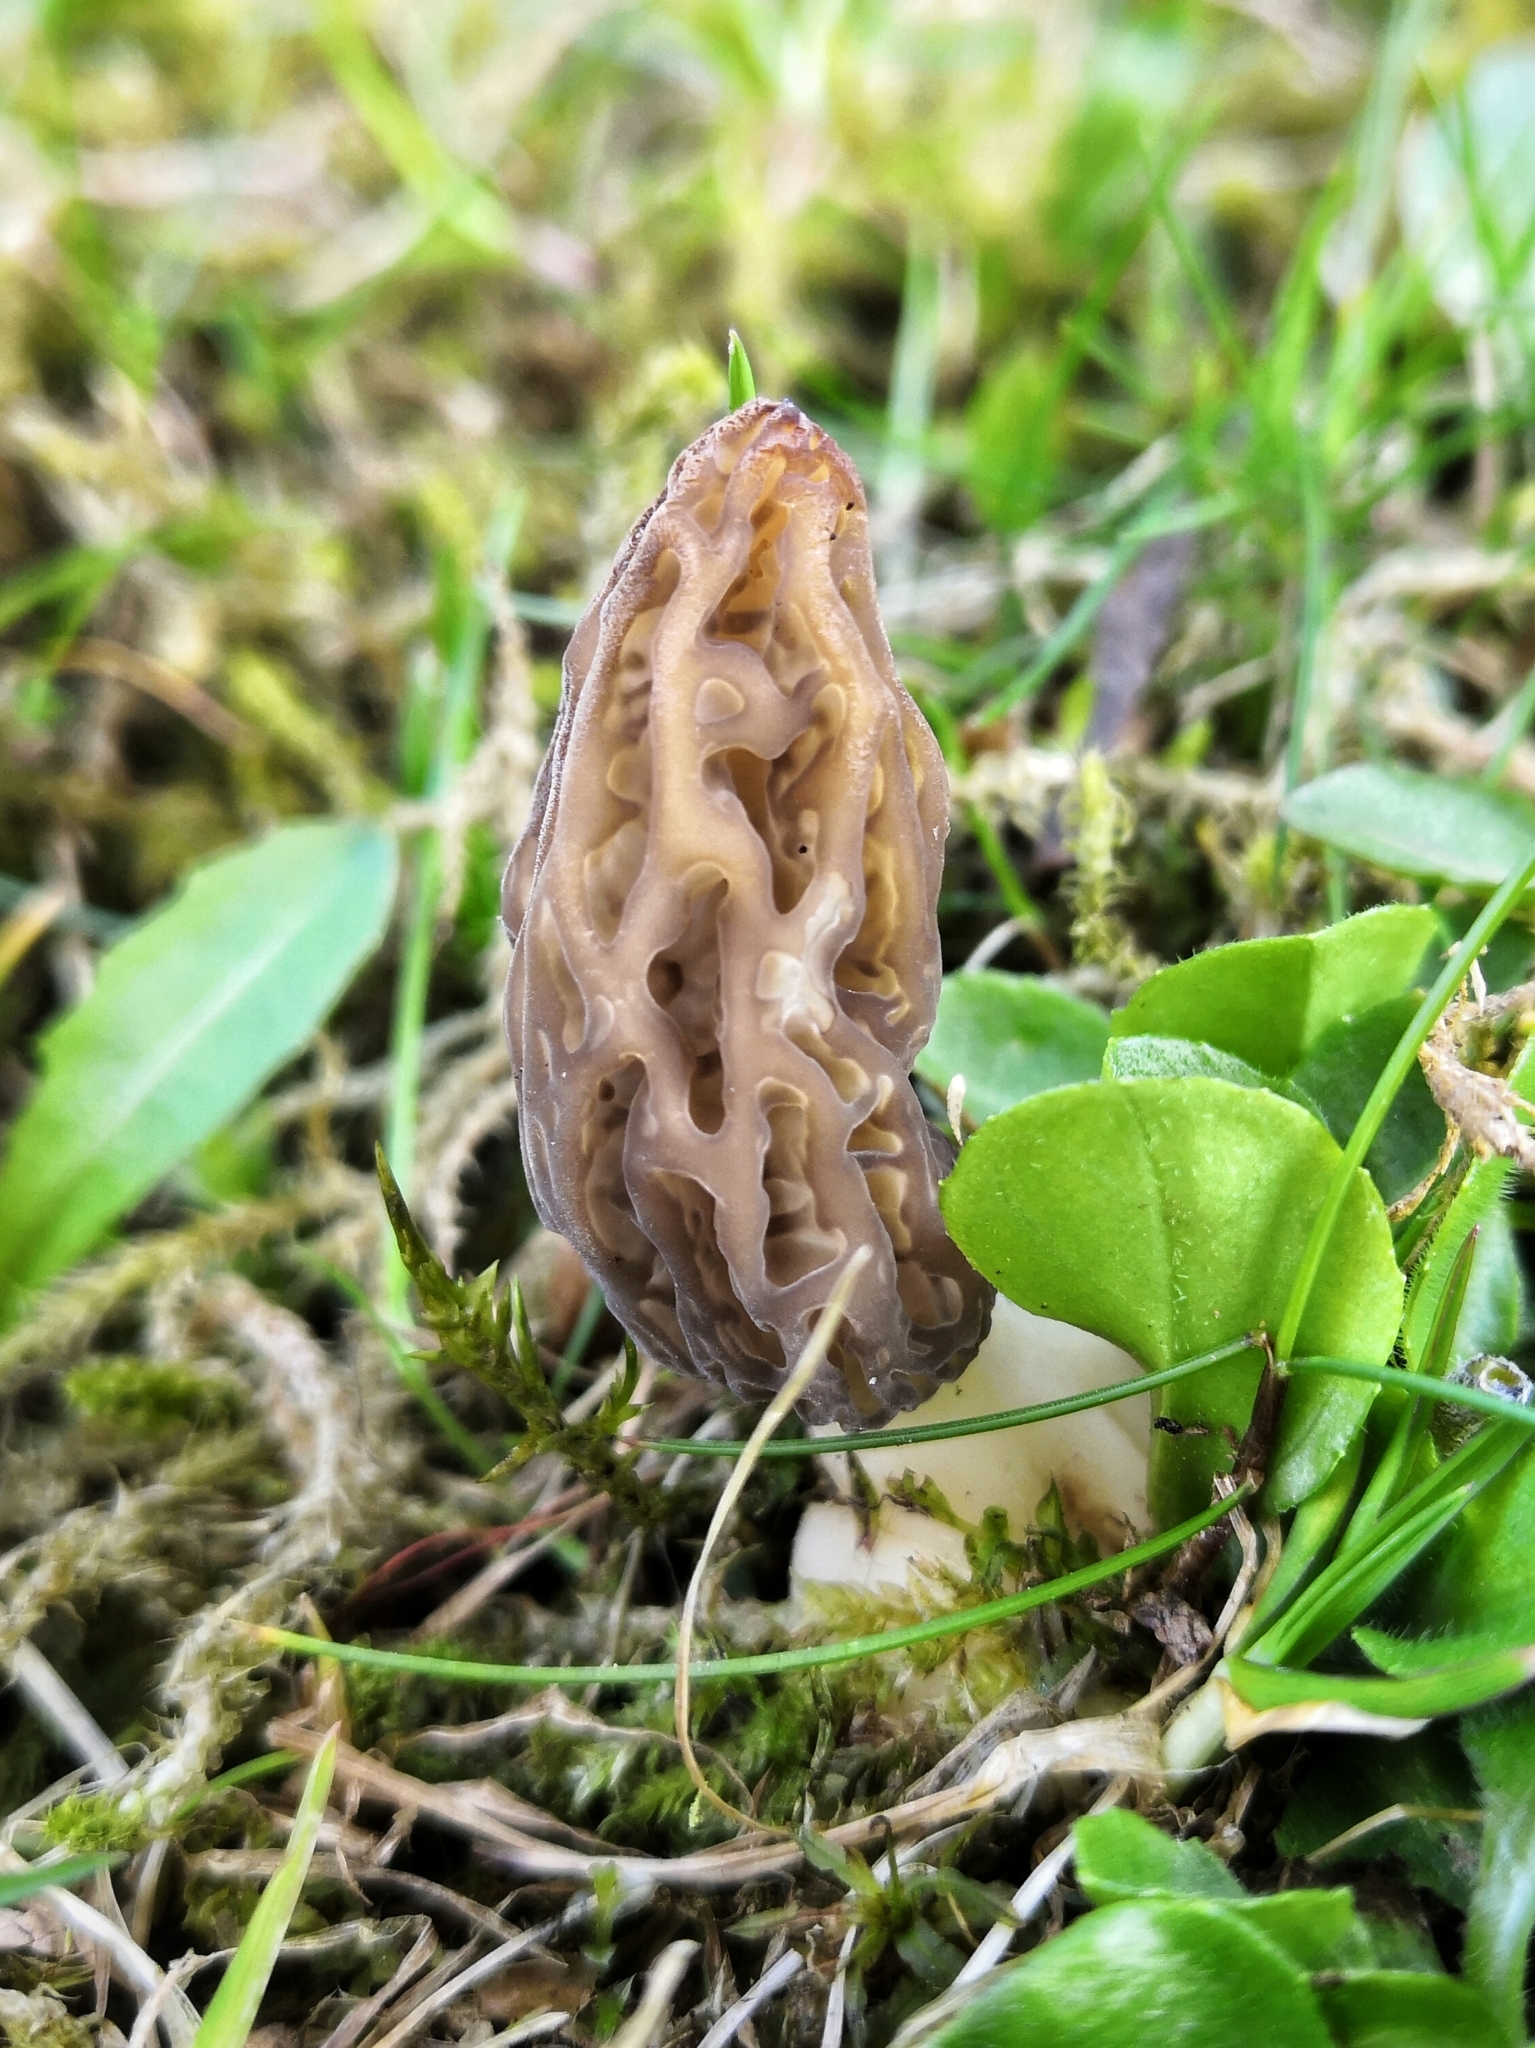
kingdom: Fungi
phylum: Ascomycota
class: Pezizomycetes
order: Pezizales
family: Morchellaceae
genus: Morchella
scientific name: Morchella
